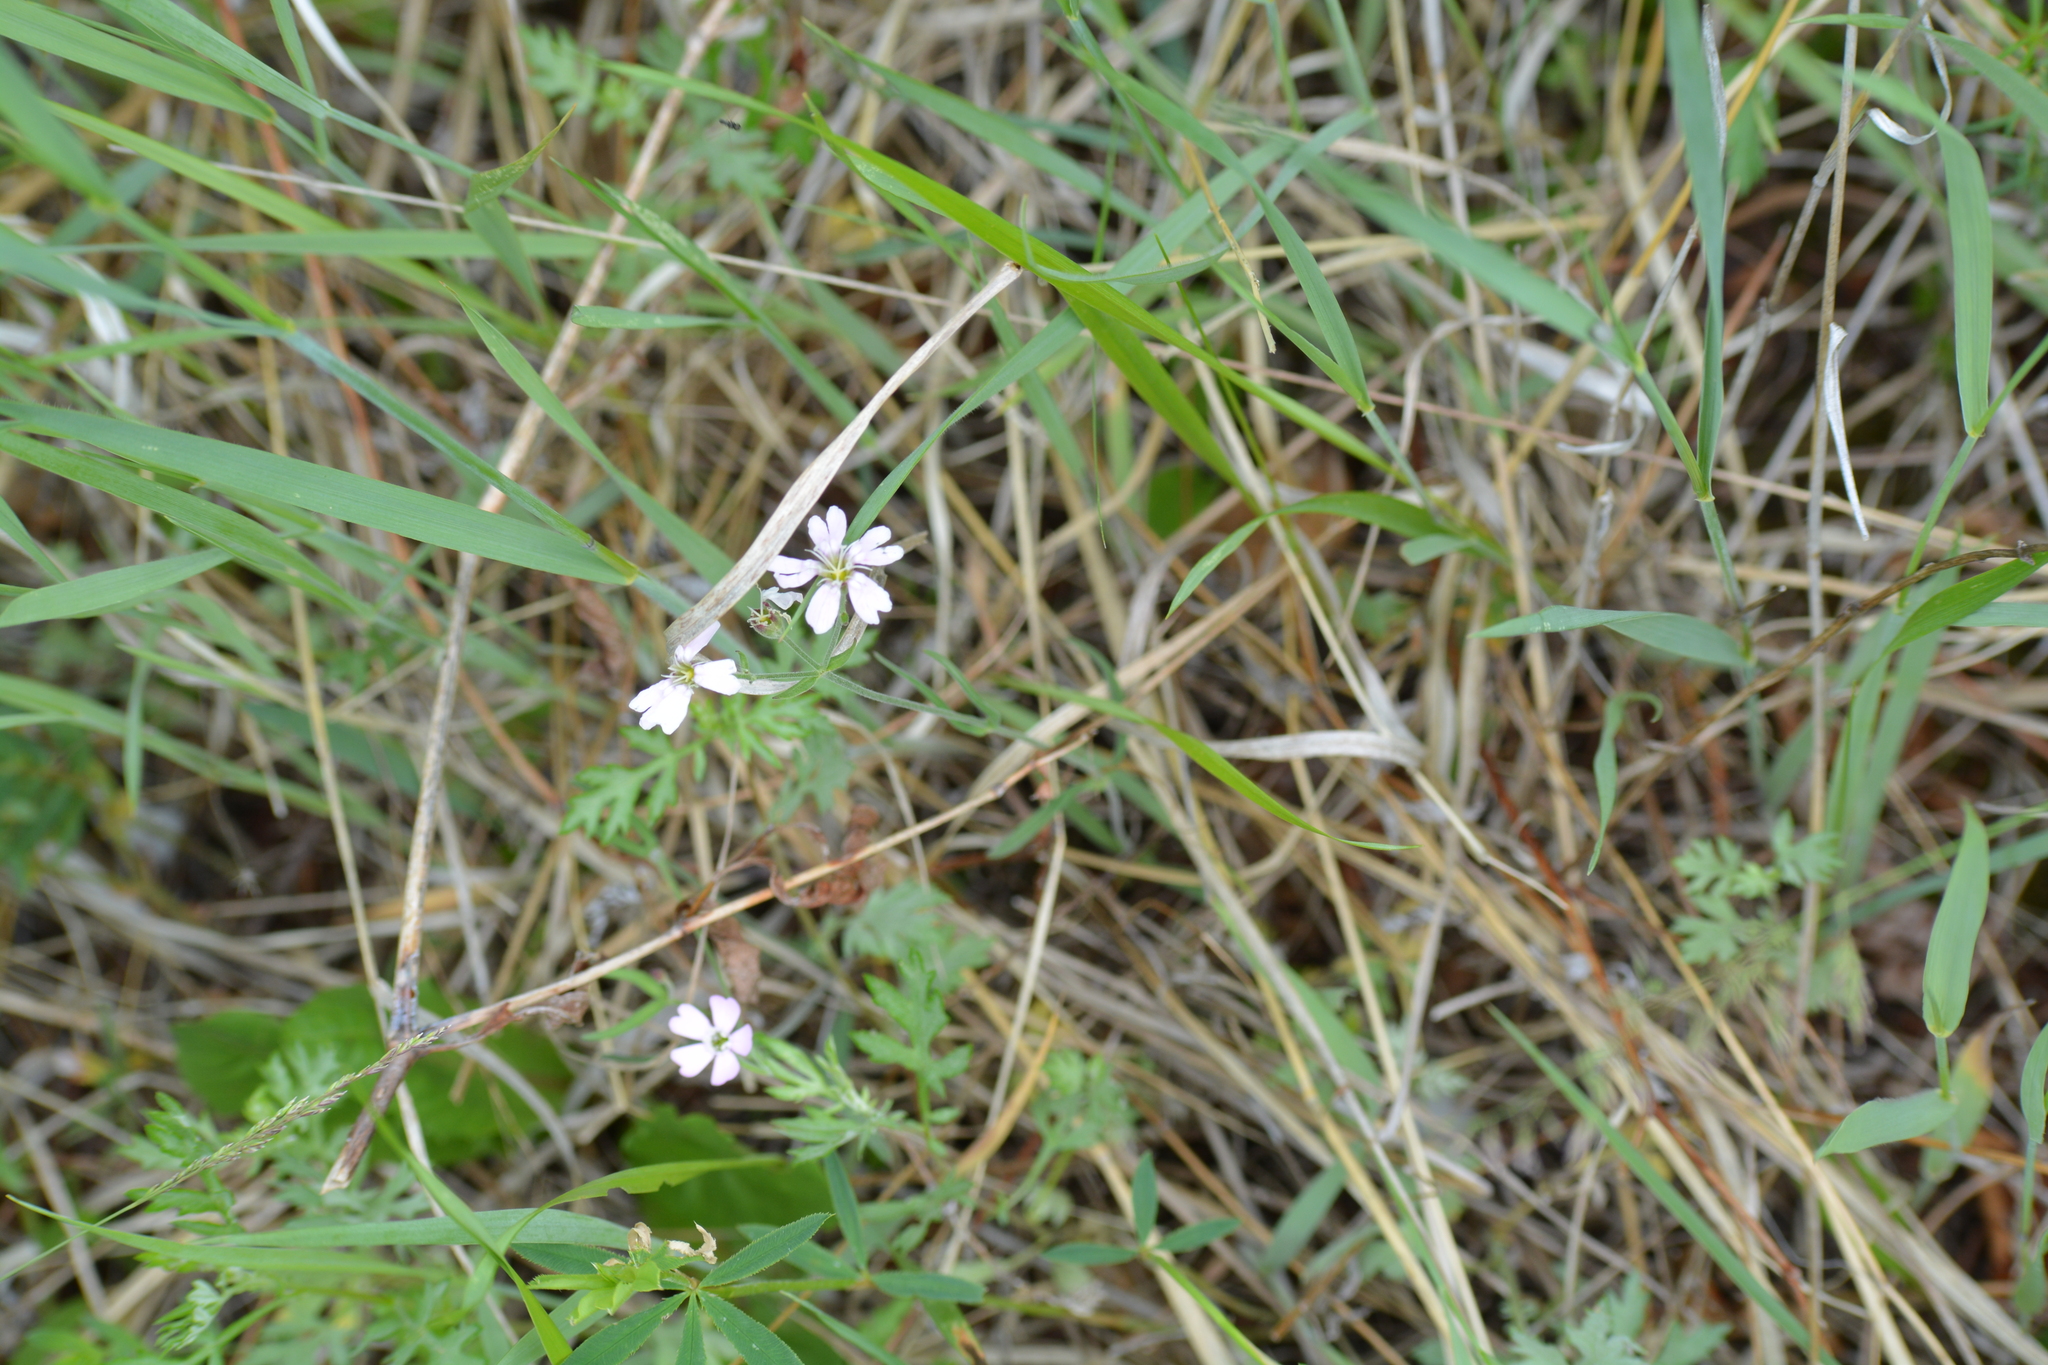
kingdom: Plantae
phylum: Tracheophyta
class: Magnoliopsida
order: Caryophyllales
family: Caryophyllaceae
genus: Silene
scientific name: Silene orientalimongolica
